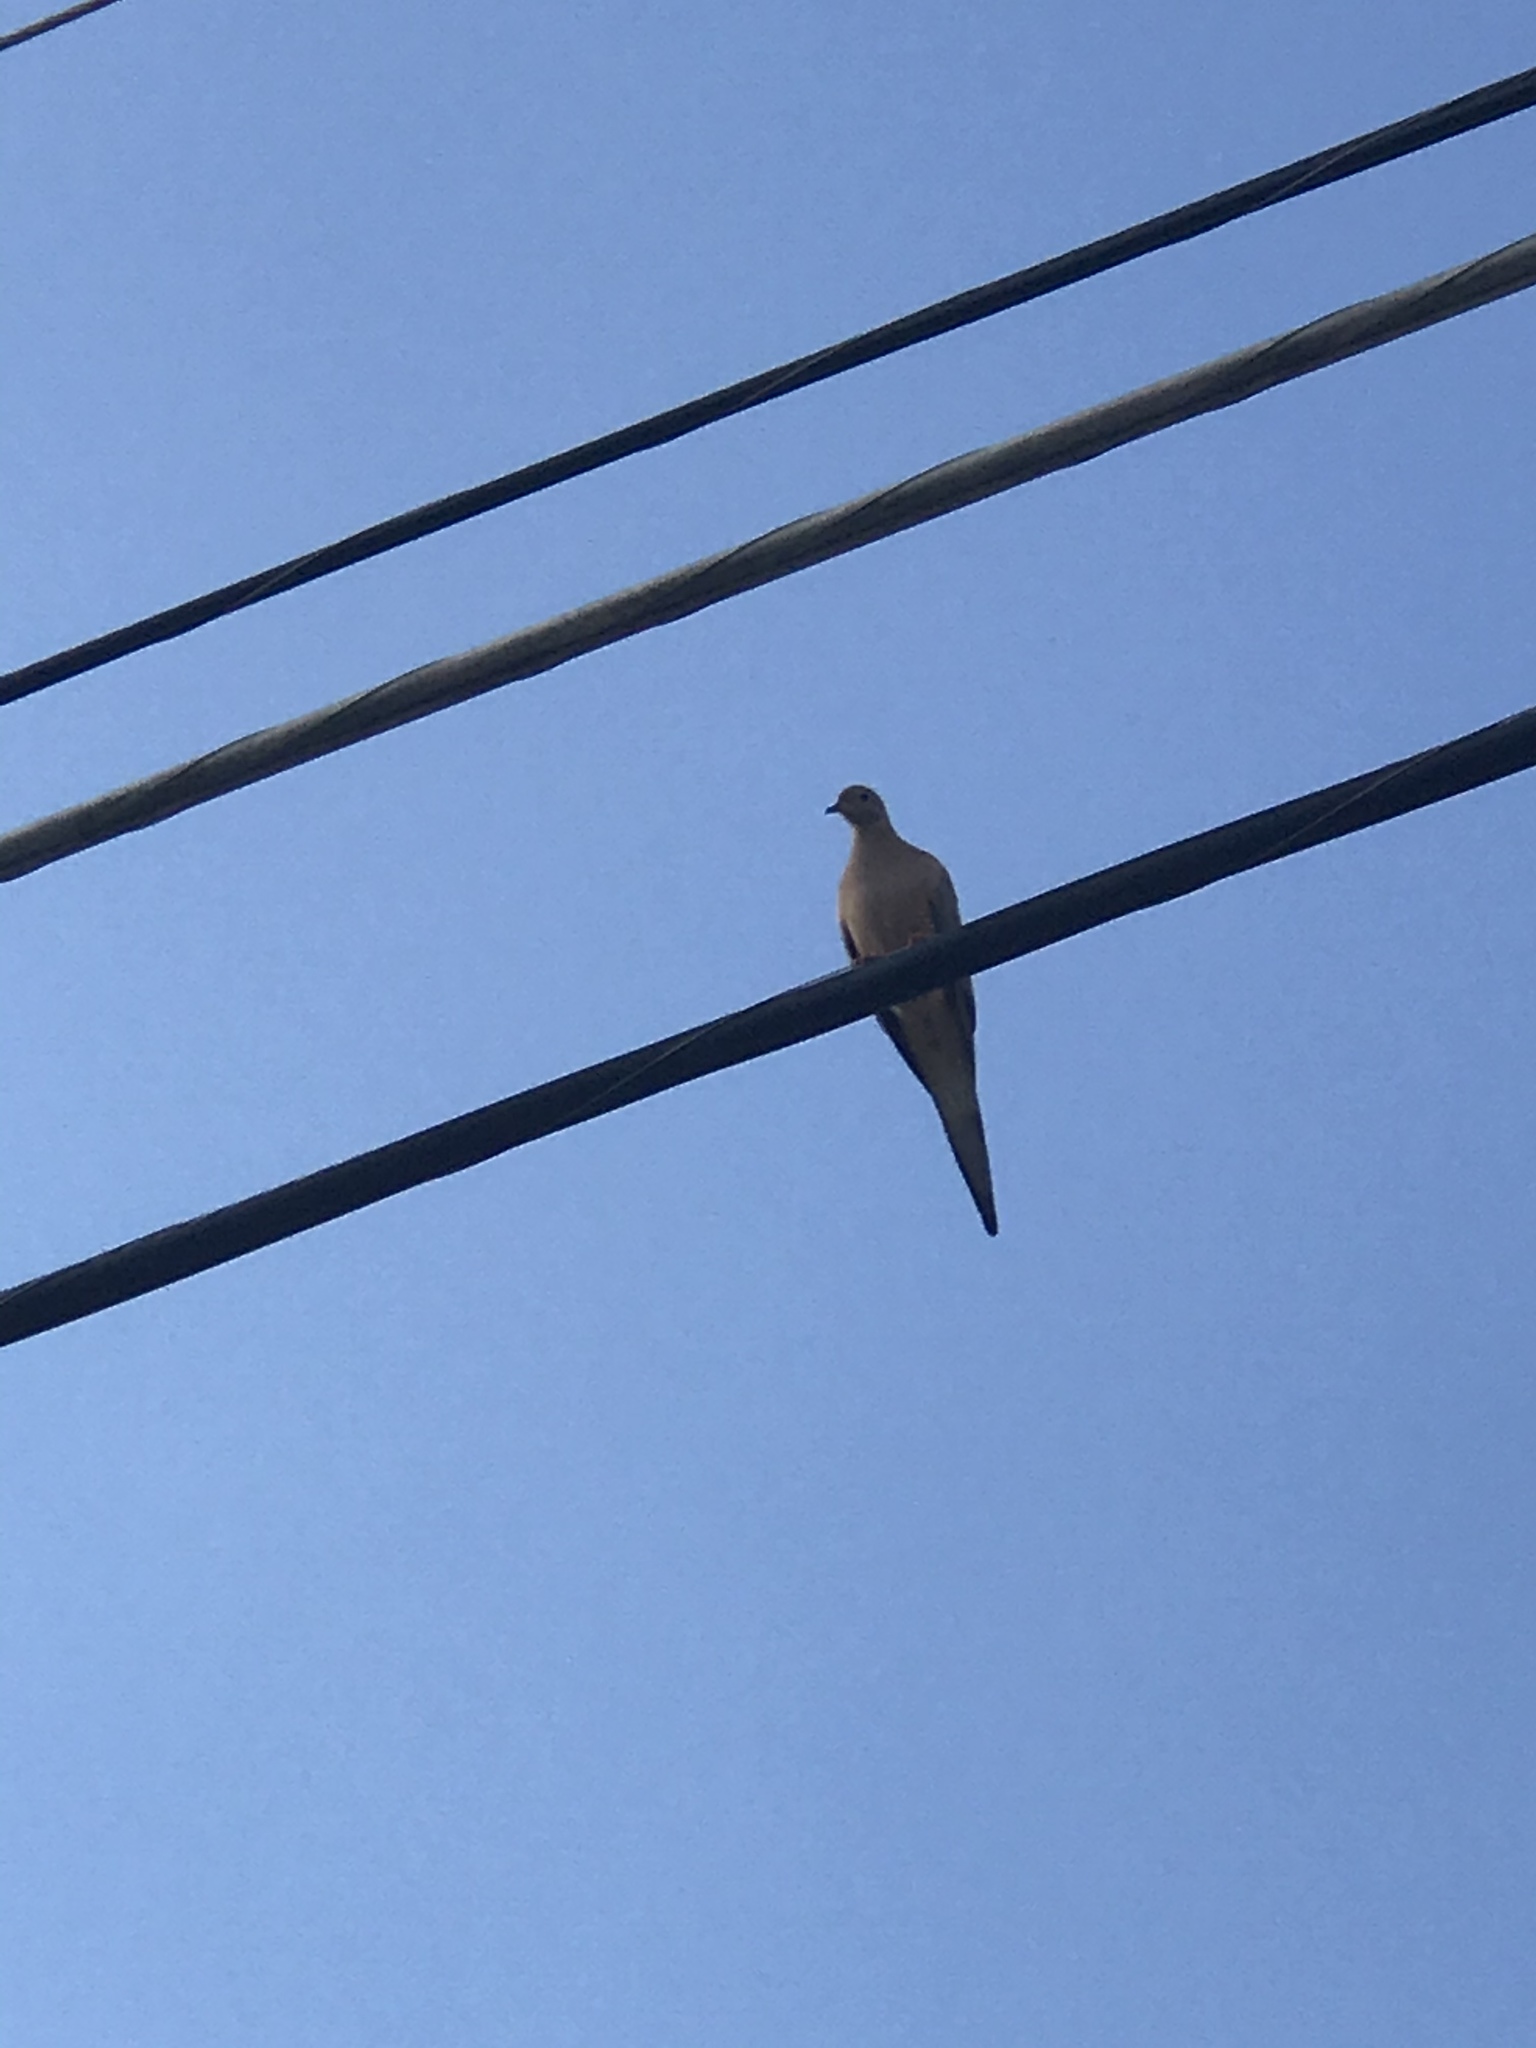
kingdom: Animalia
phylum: Chordata
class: Aves
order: Columbiformes
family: Columbidae
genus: Zenaida
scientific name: Zenaida macroura
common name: Mourning dove
